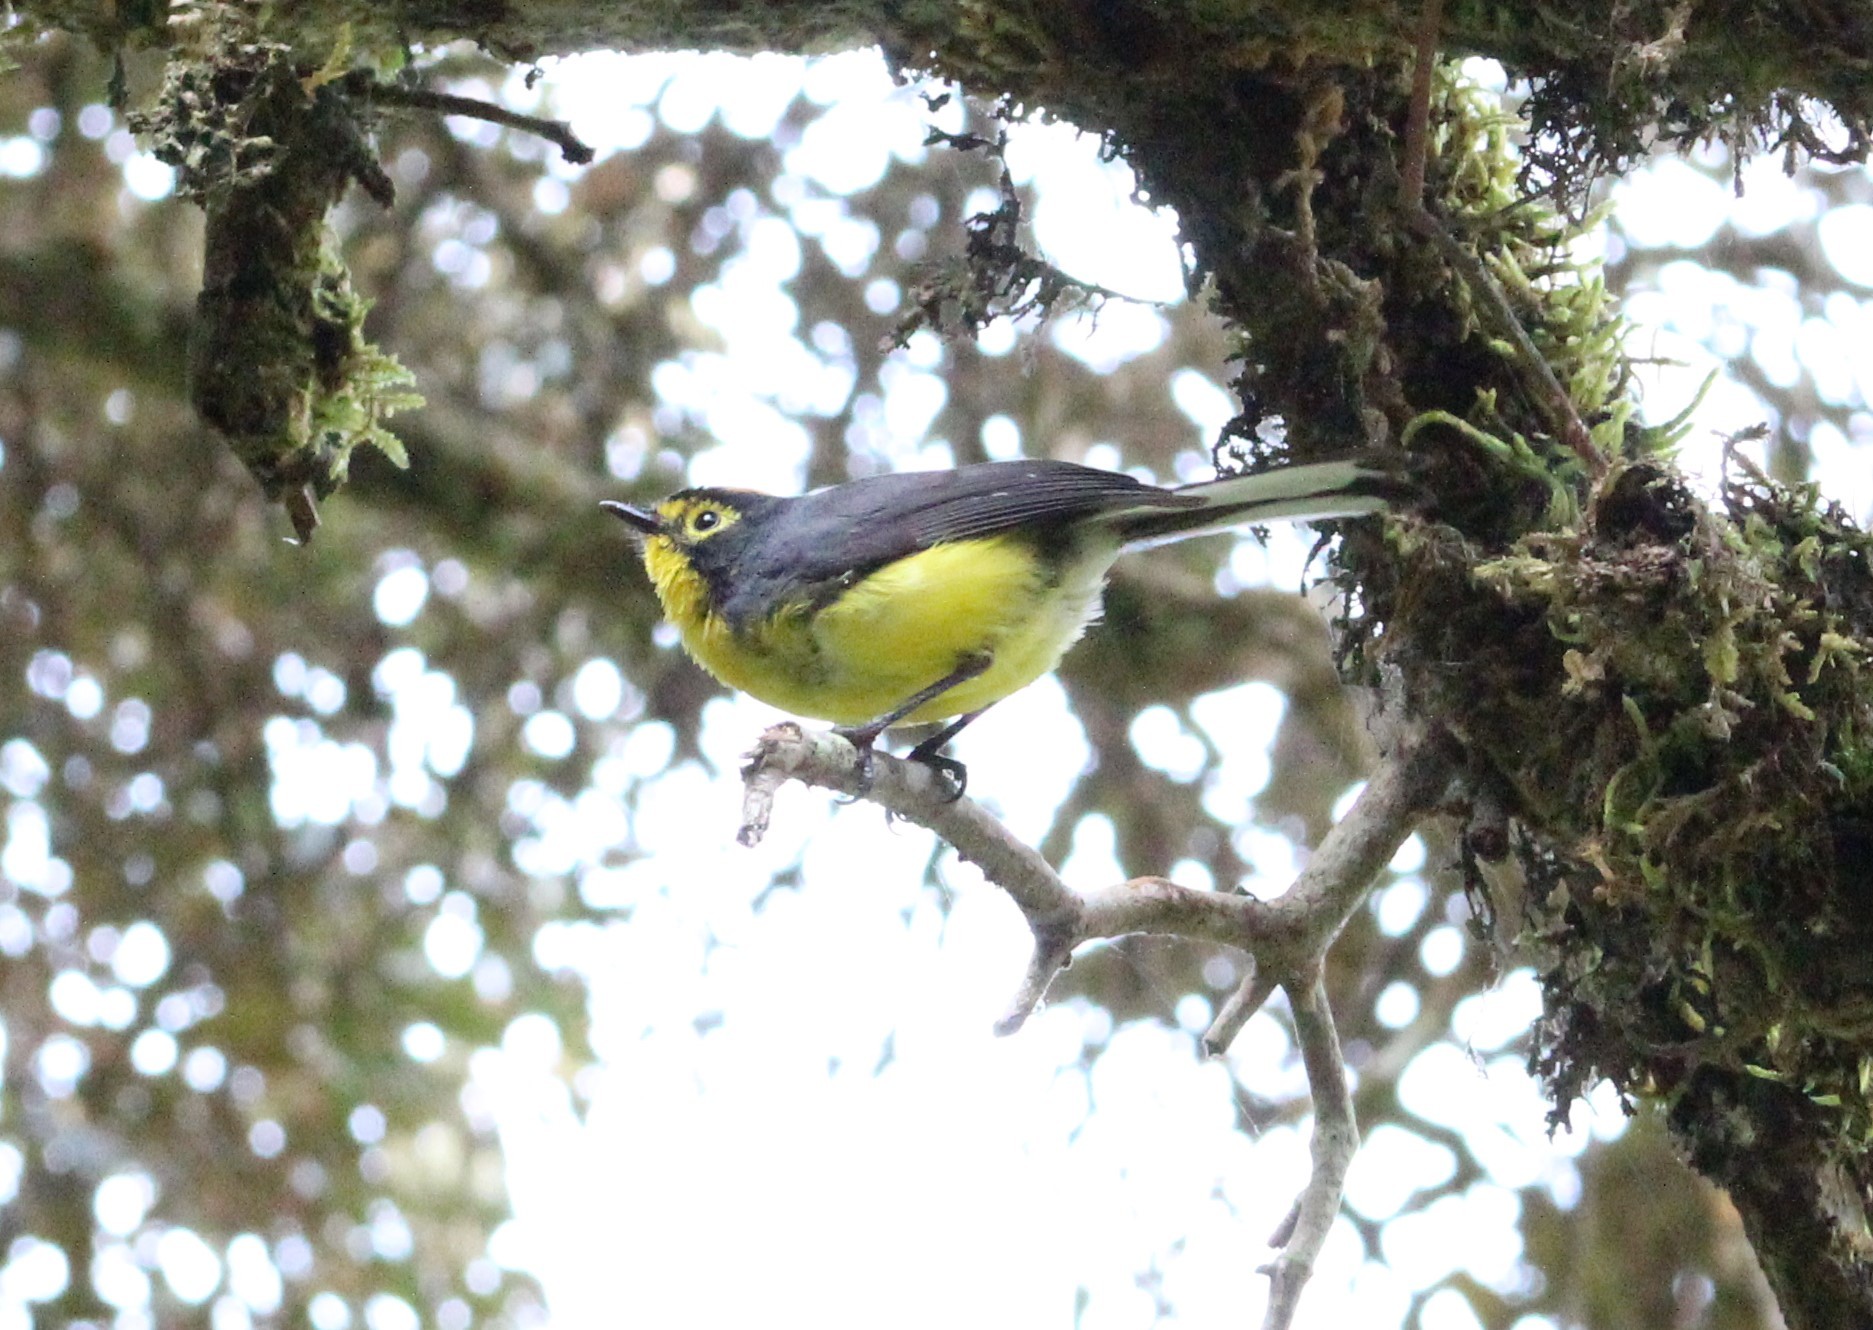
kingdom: Animalia
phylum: Chordata
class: Aves
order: Passeriformes
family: Parulidae
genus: Myioborus
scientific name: Myioborus melanocephalus
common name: Spectacled whitestart
